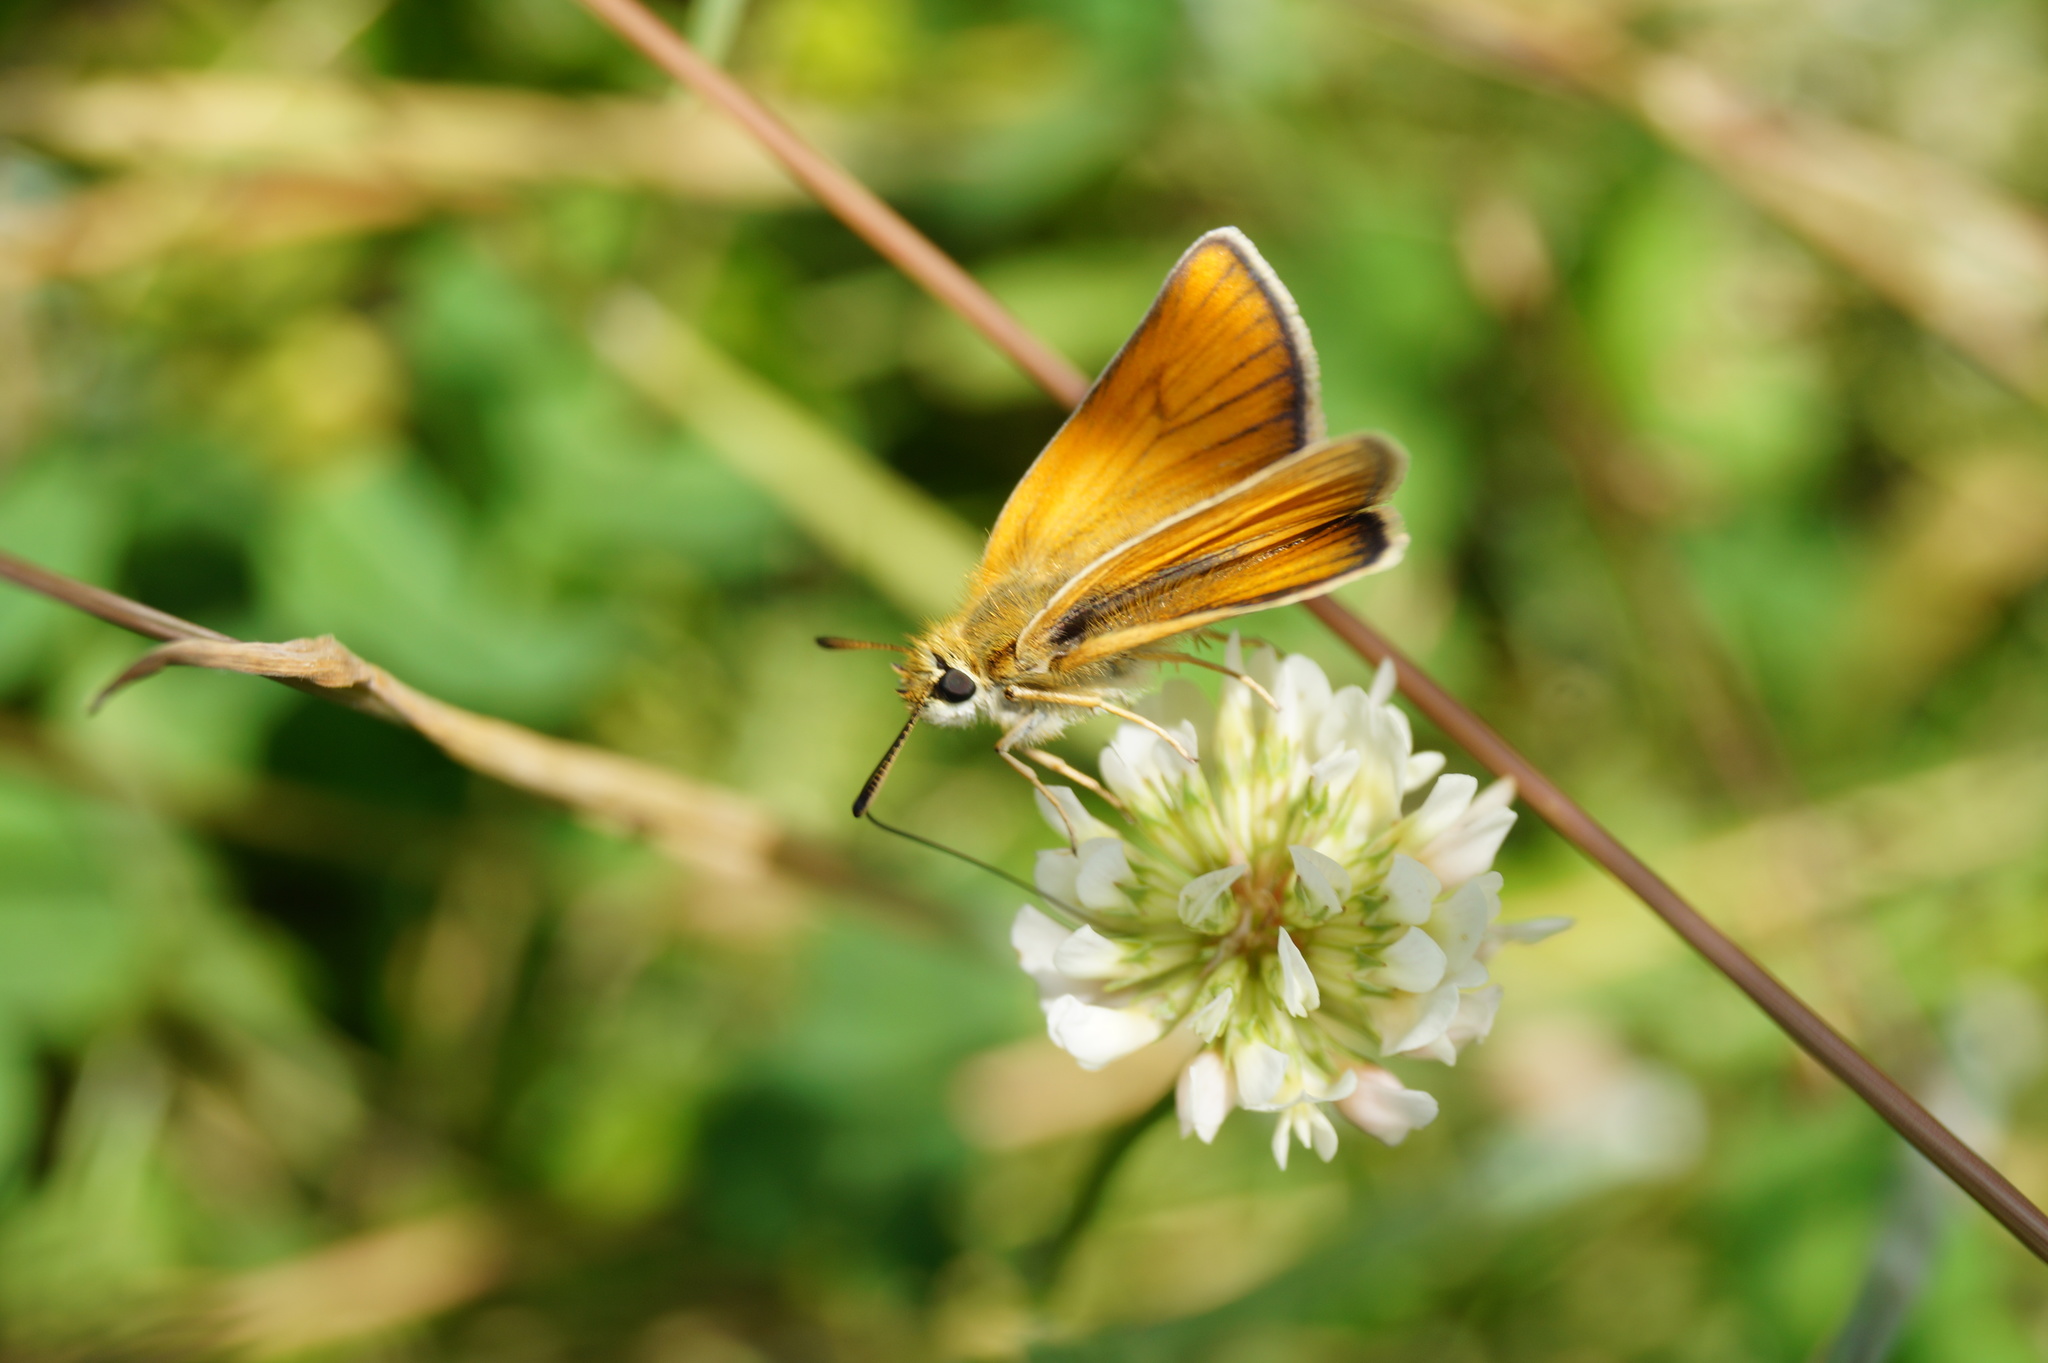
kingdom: Animalia
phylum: Arthropoda
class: Insecta
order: Lepidoptera
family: Hesperiidae
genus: Thymelicus
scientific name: Thymelicus lineola
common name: Essex skipper
